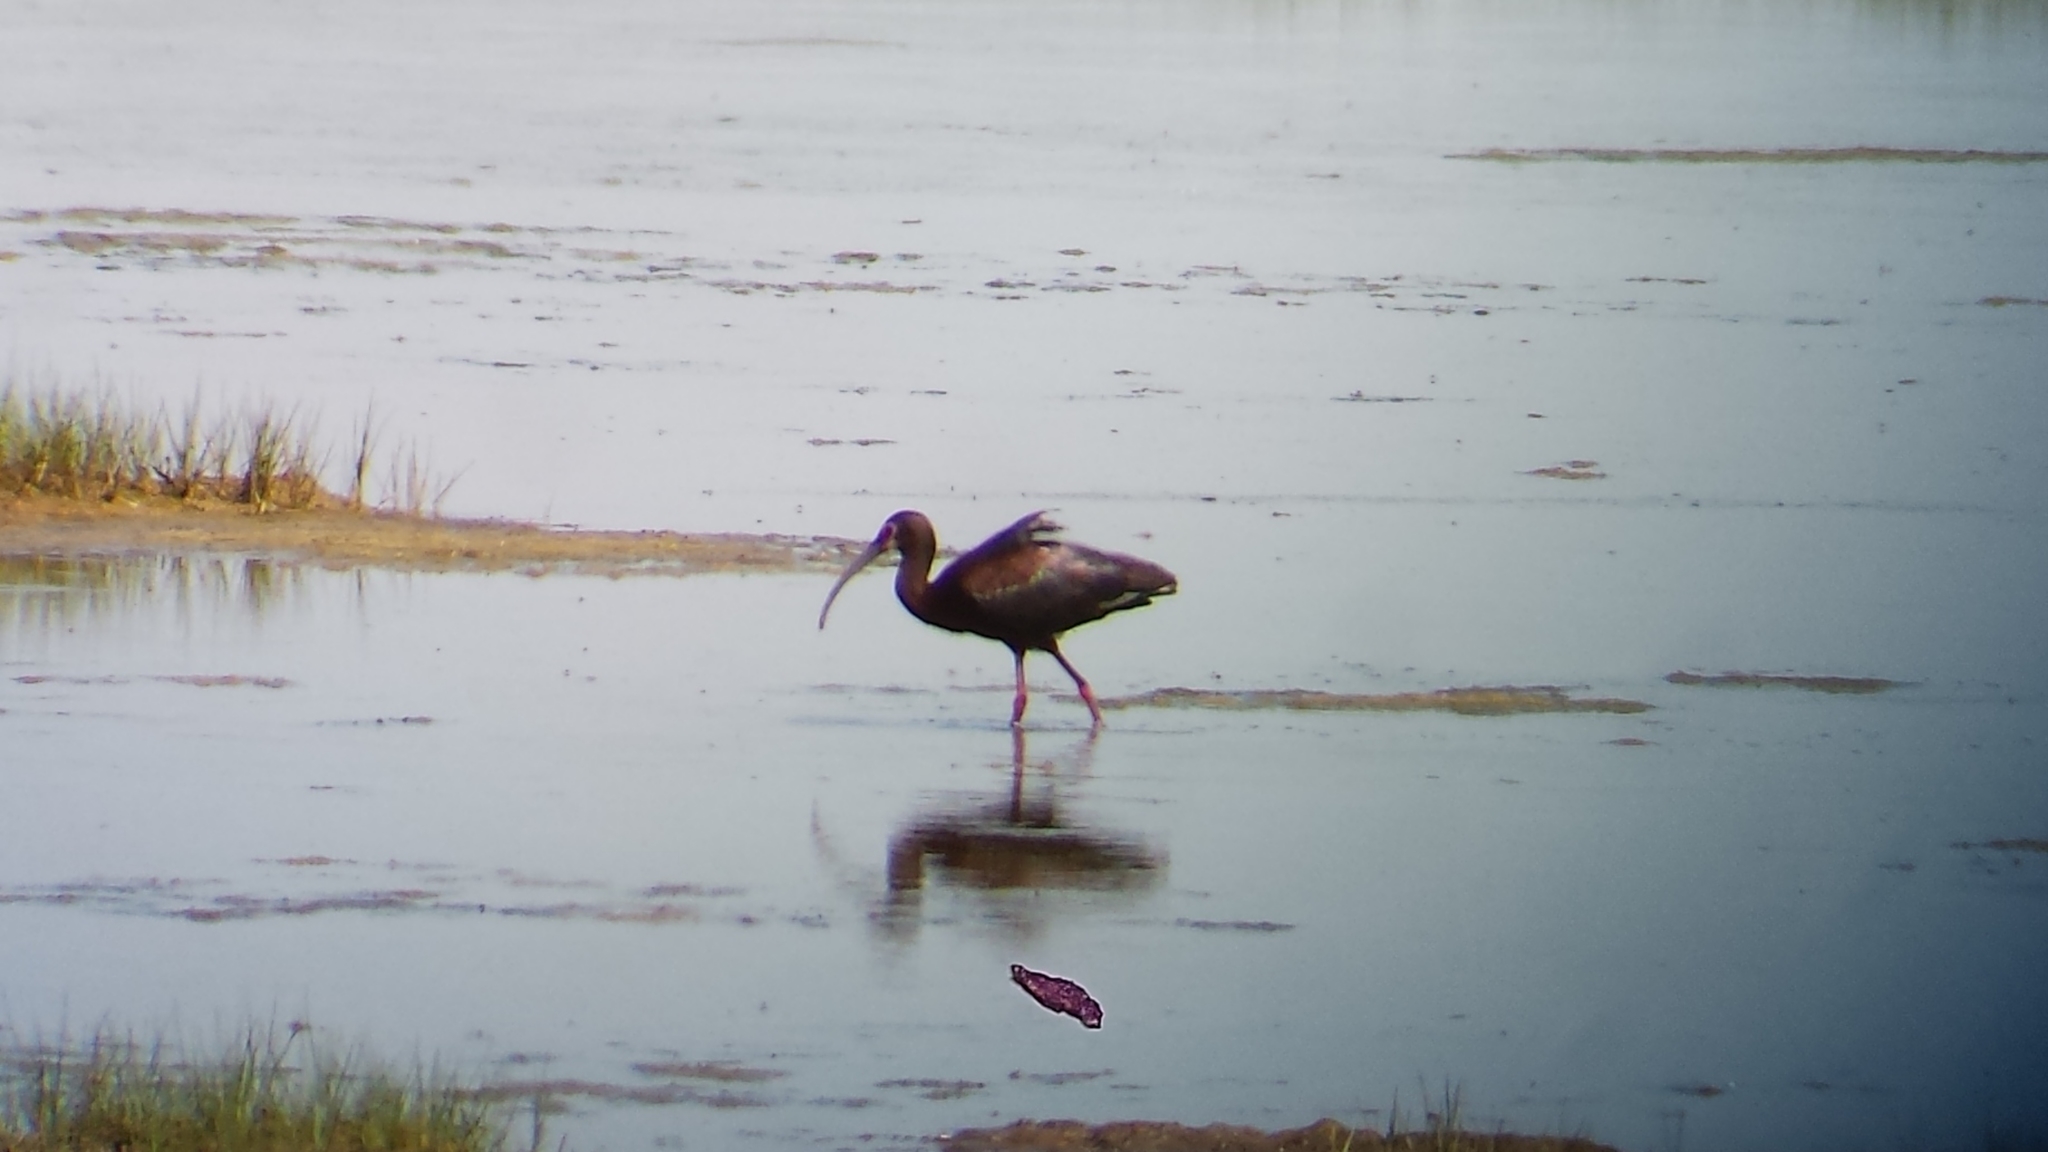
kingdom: Animalia
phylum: Chordata
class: Aves
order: Pelecaniformes
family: Threskiornithidae
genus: Plegadis
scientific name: Plegadis chihi
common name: White-faced ibis
